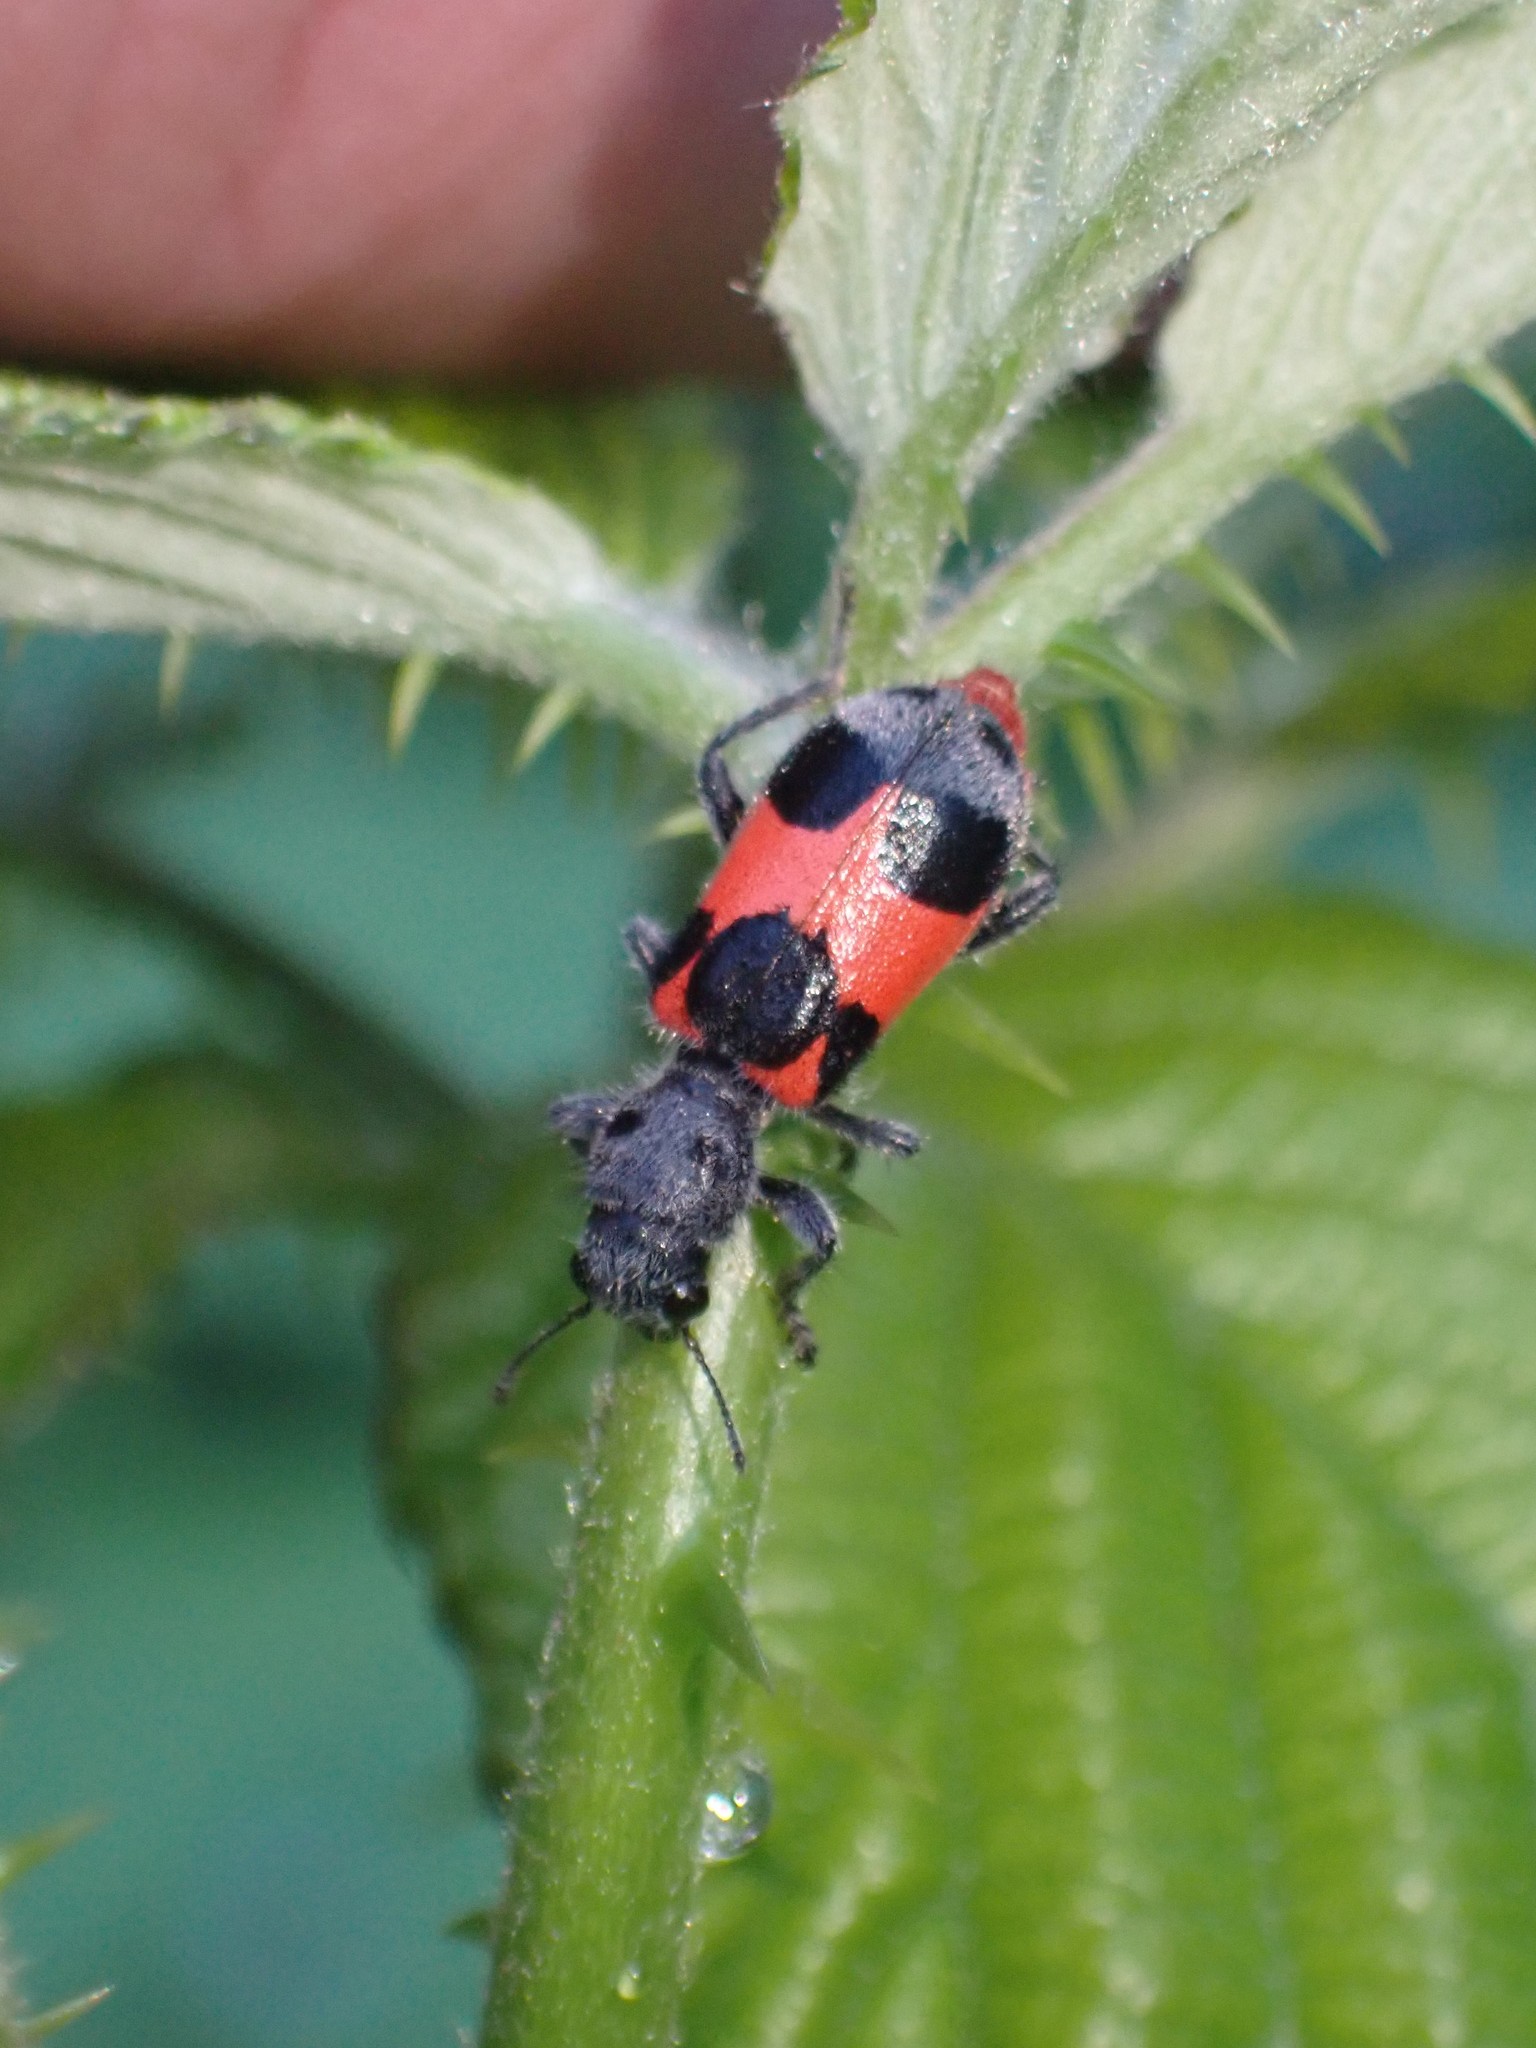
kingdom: Animalia
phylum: Arthropoda
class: Insecta
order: Coleoptera
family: Cleridae
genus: Enoclerus
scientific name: Enoclerus eximius
